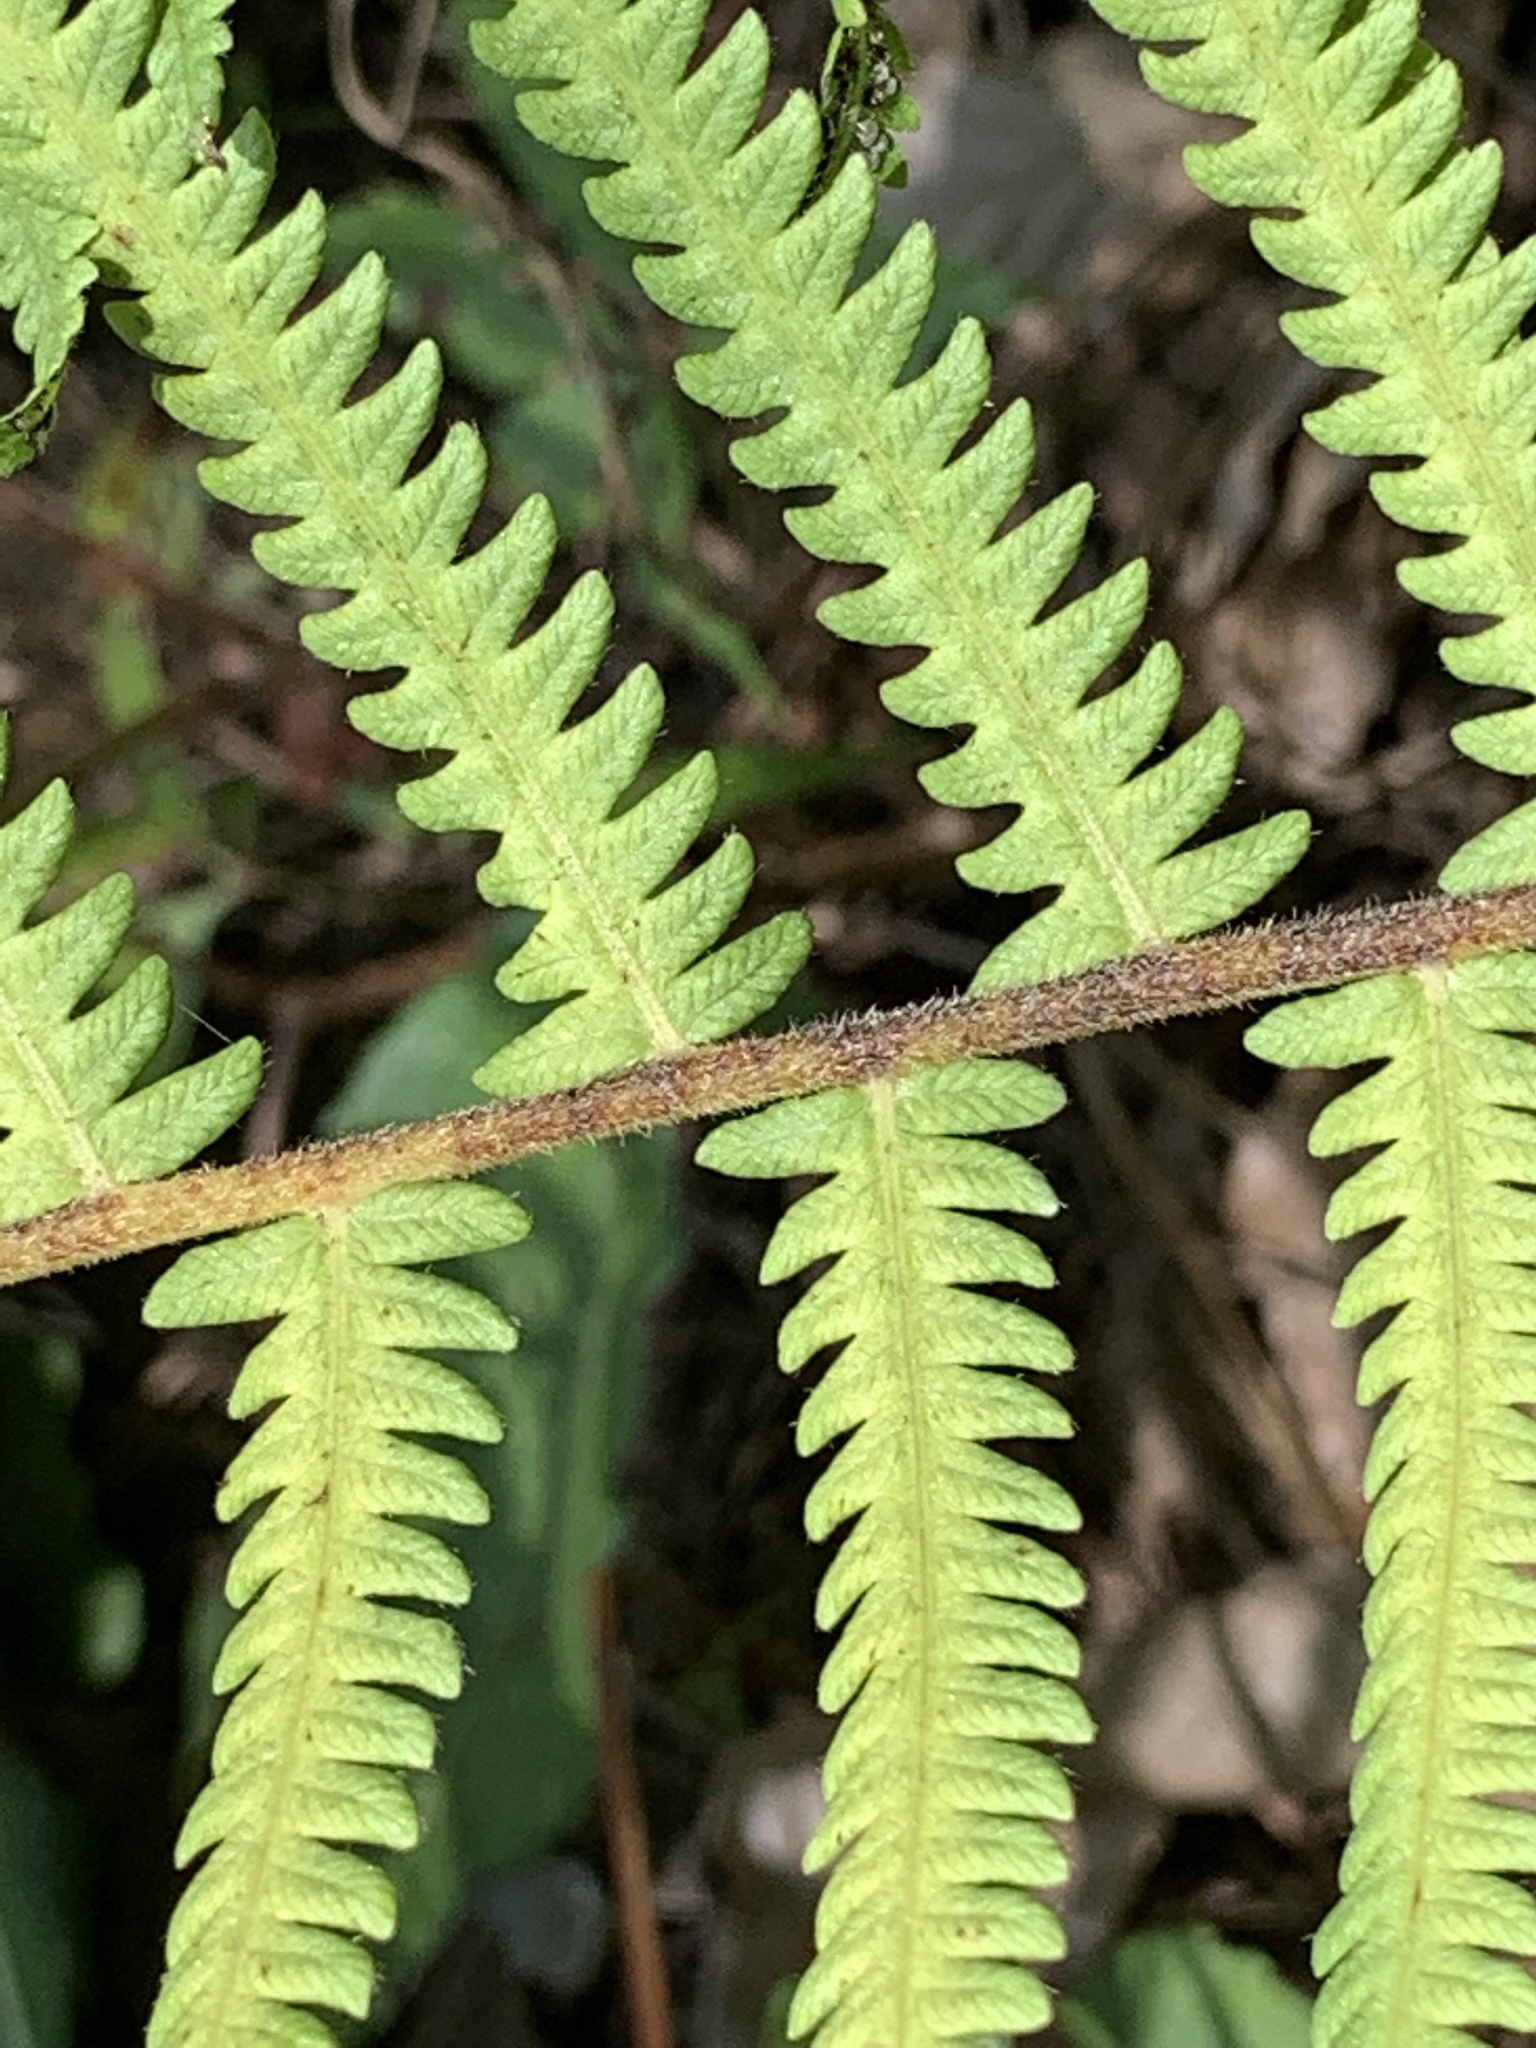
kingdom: Plantae
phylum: Tracheophyta
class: Polypodiopsida
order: Polypodiales
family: Thelypteridaceae
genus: Pelazoneuron
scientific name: Pelazoneuron kunthii
